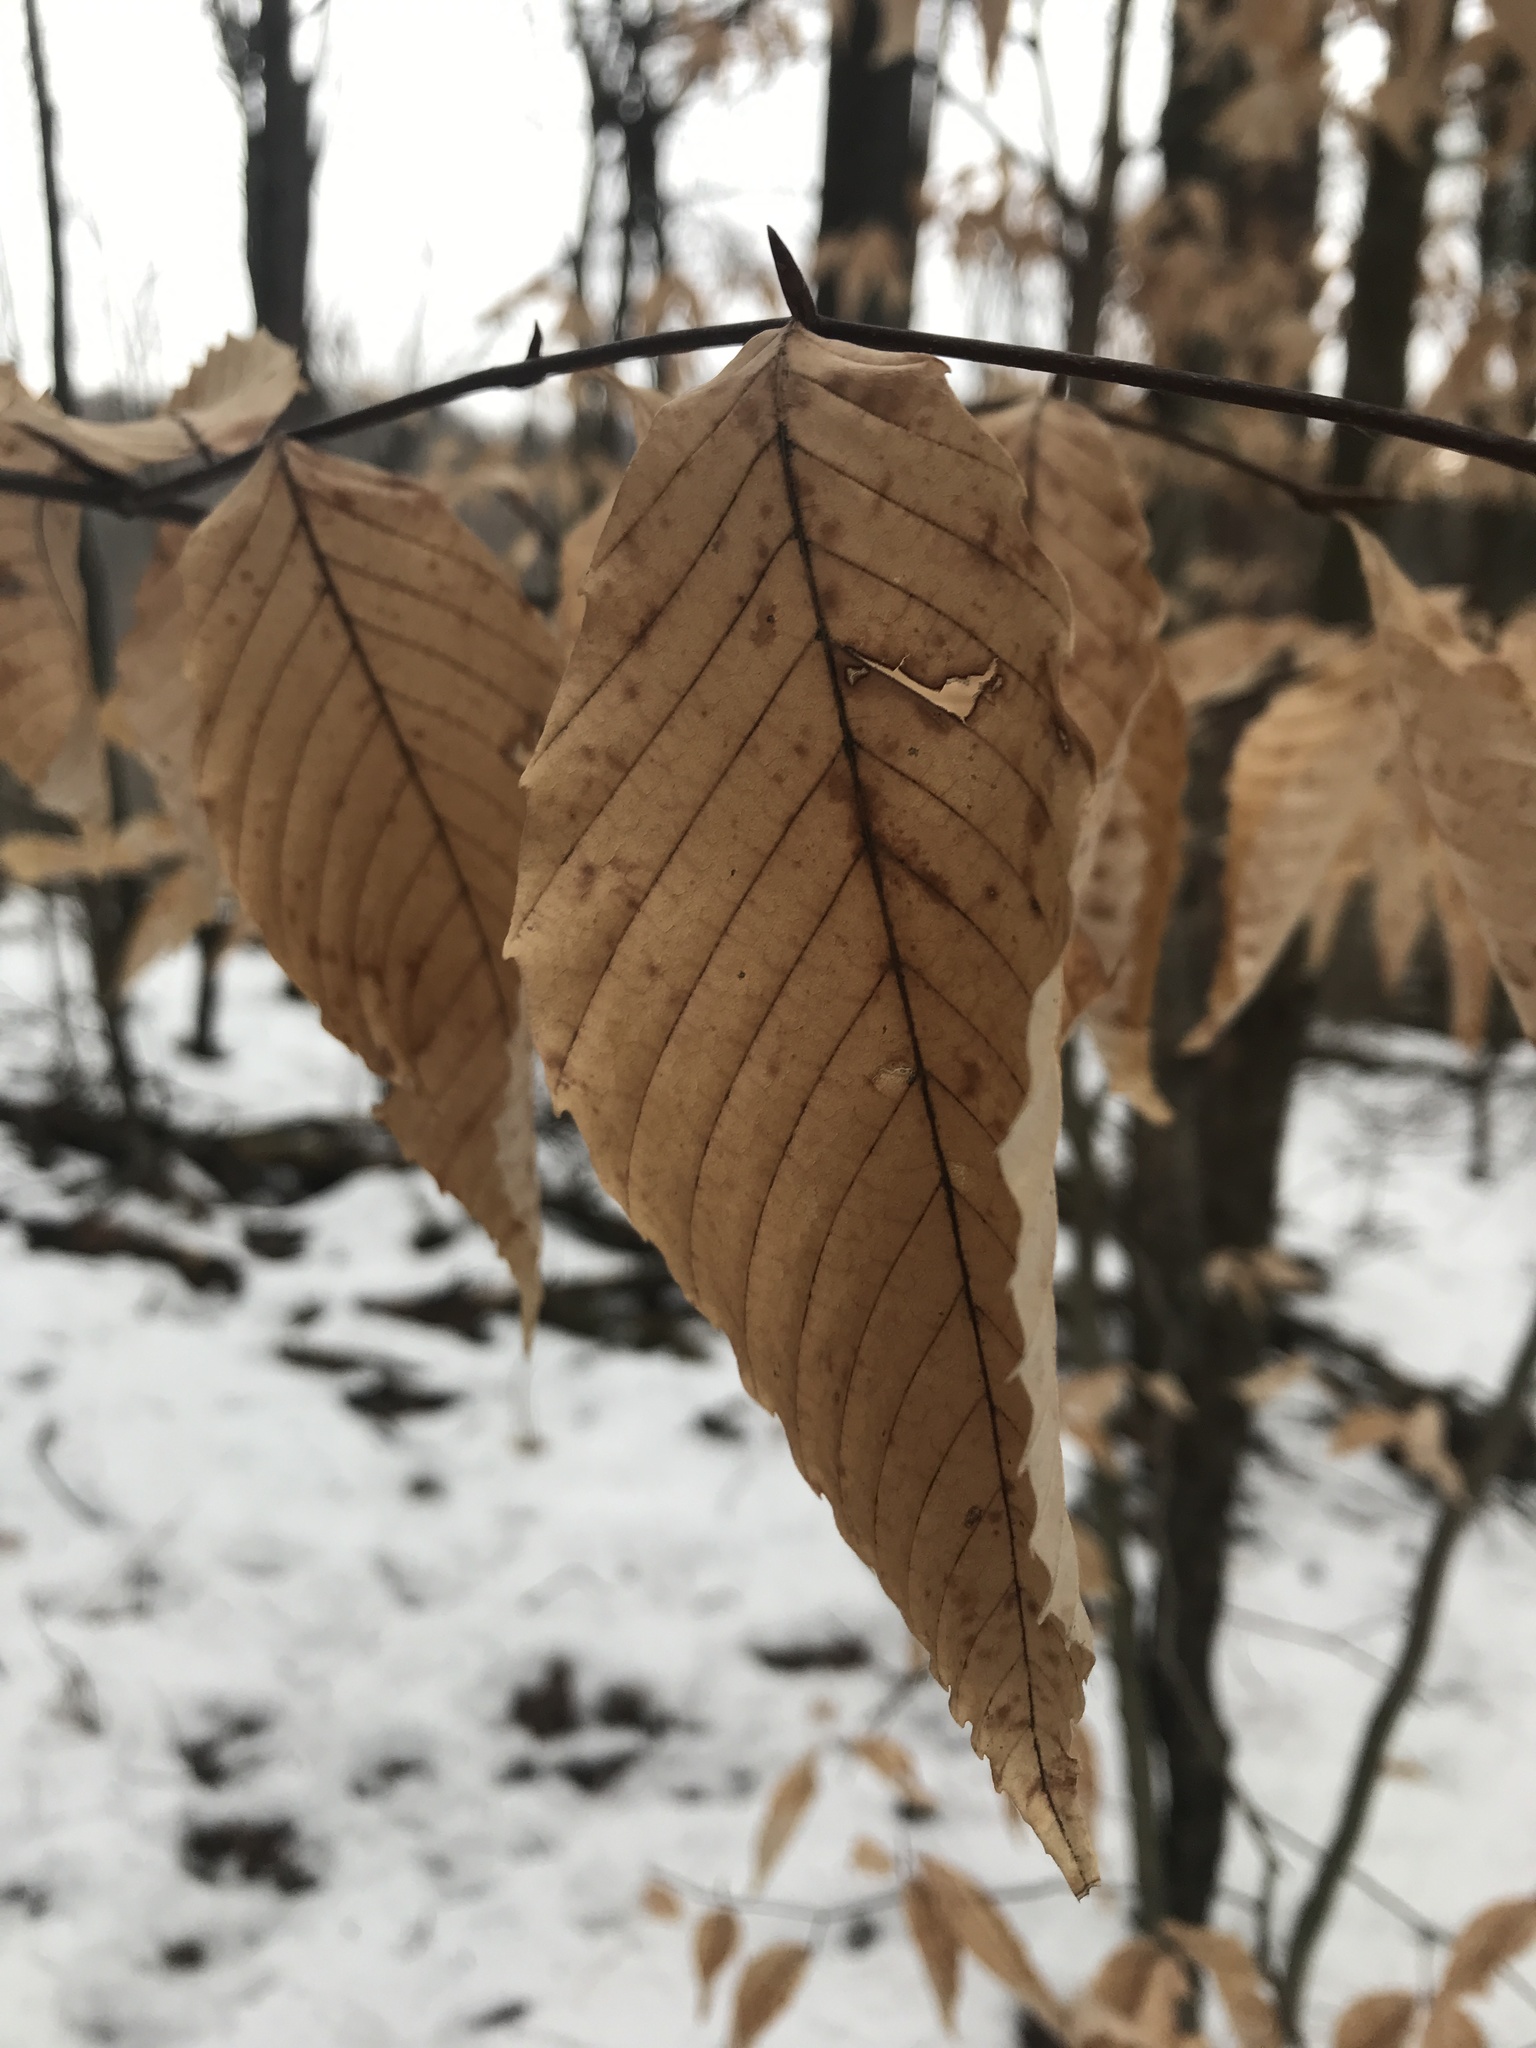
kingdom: Plantae
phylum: Tracheophyta
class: Magnoliopsida
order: Fagales
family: Fagaceae
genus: Fagus
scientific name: Fagus grandifolia
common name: American beech
